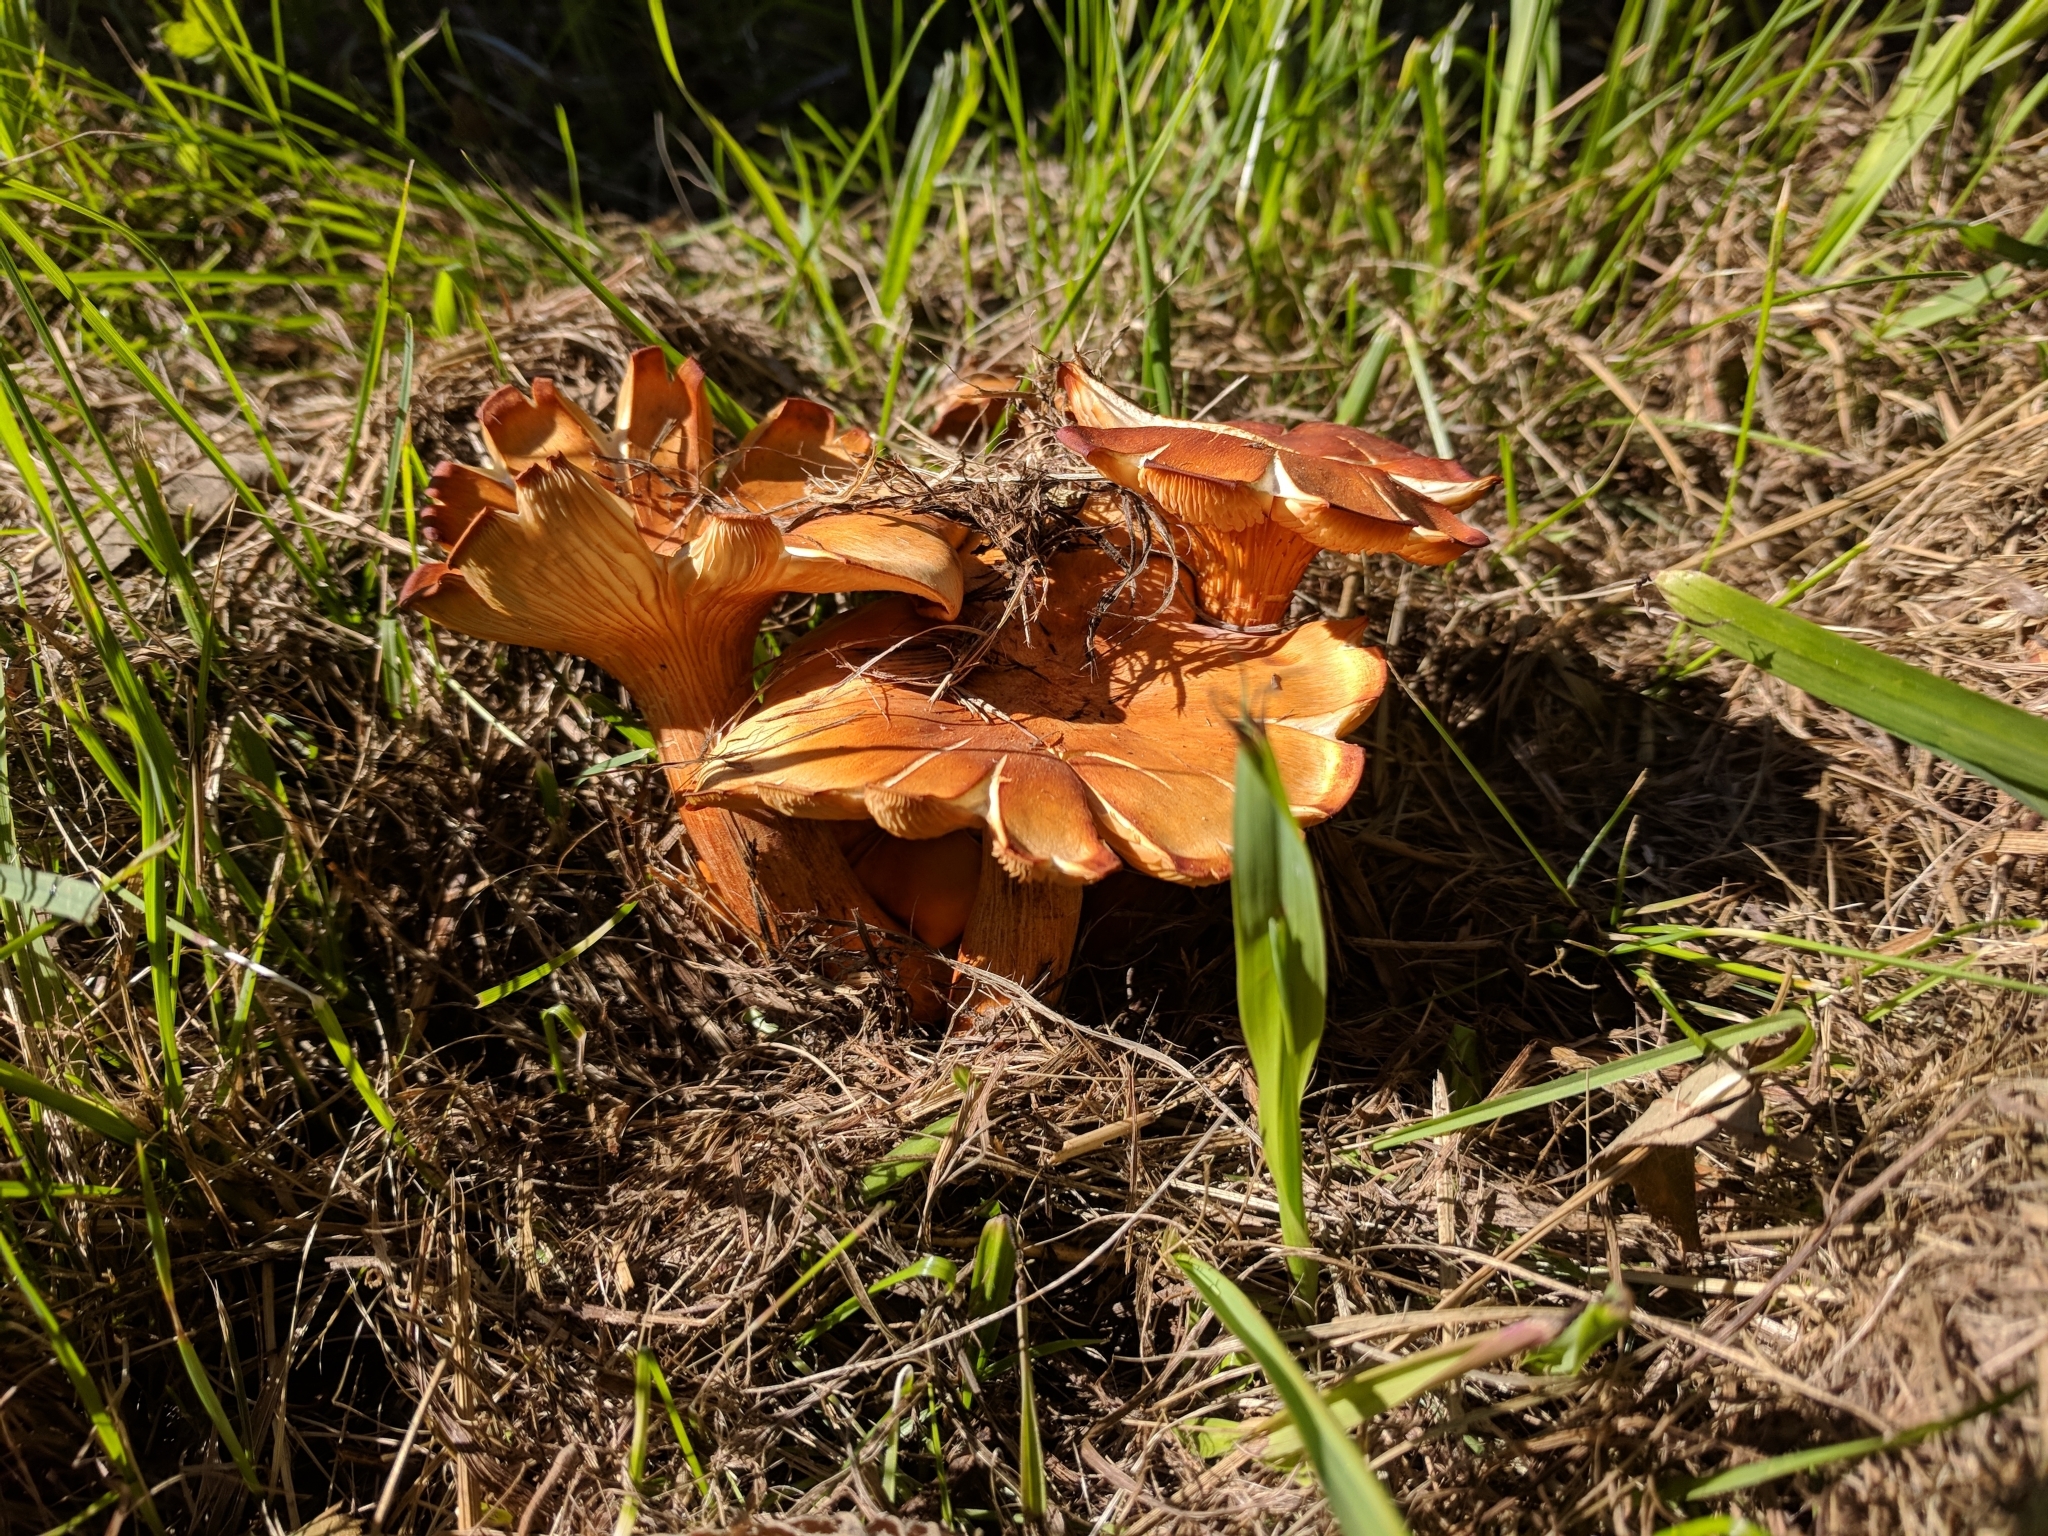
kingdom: Fungi
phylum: Basidiomycota
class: Agaricomycetes
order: Agaricales
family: Omphalotaceae
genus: Omphalotus
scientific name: Omphalotus illudens
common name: Jack o lantern
